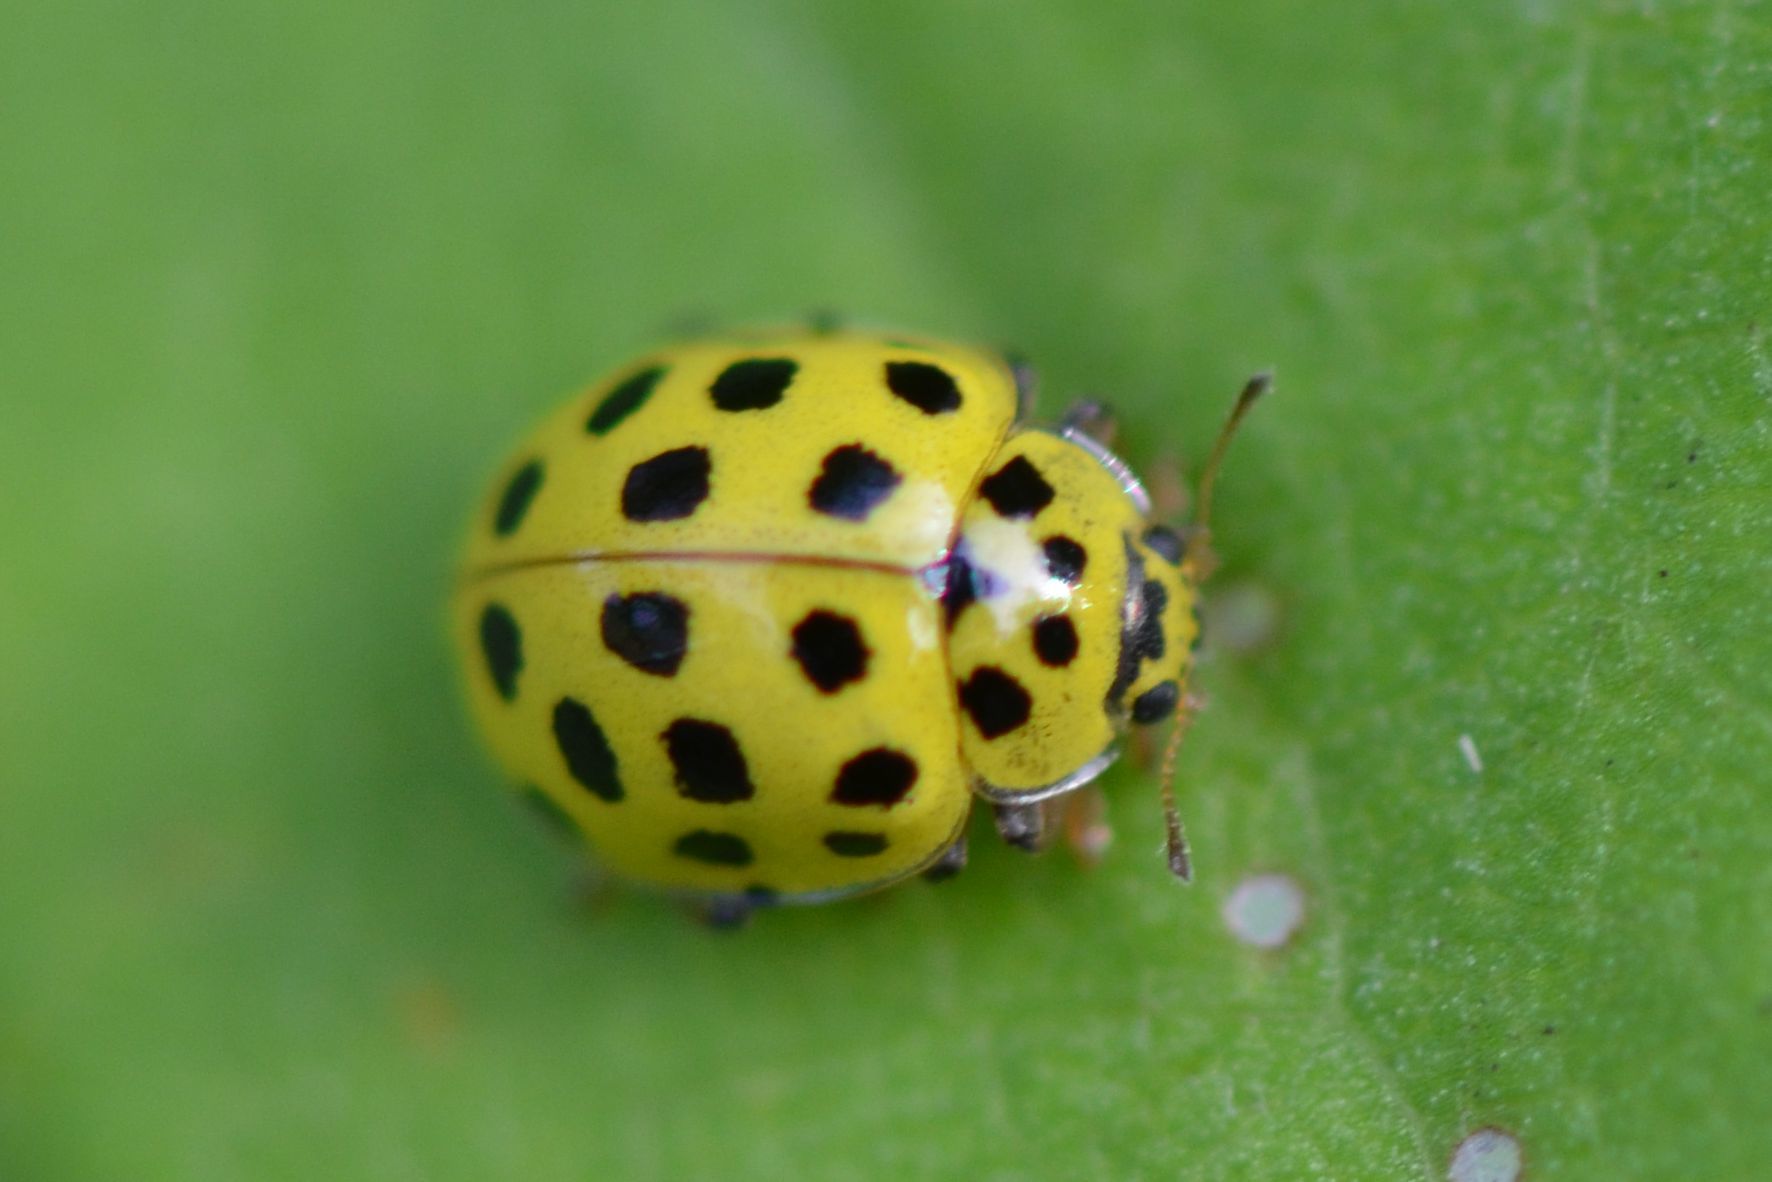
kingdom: Animalia
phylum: Arthropoda
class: Insecta
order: Coleoptera
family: Coccinellidae
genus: Psyllobora
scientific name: Psyllobora vigintiduopunctata
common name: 22-spot ladybird
